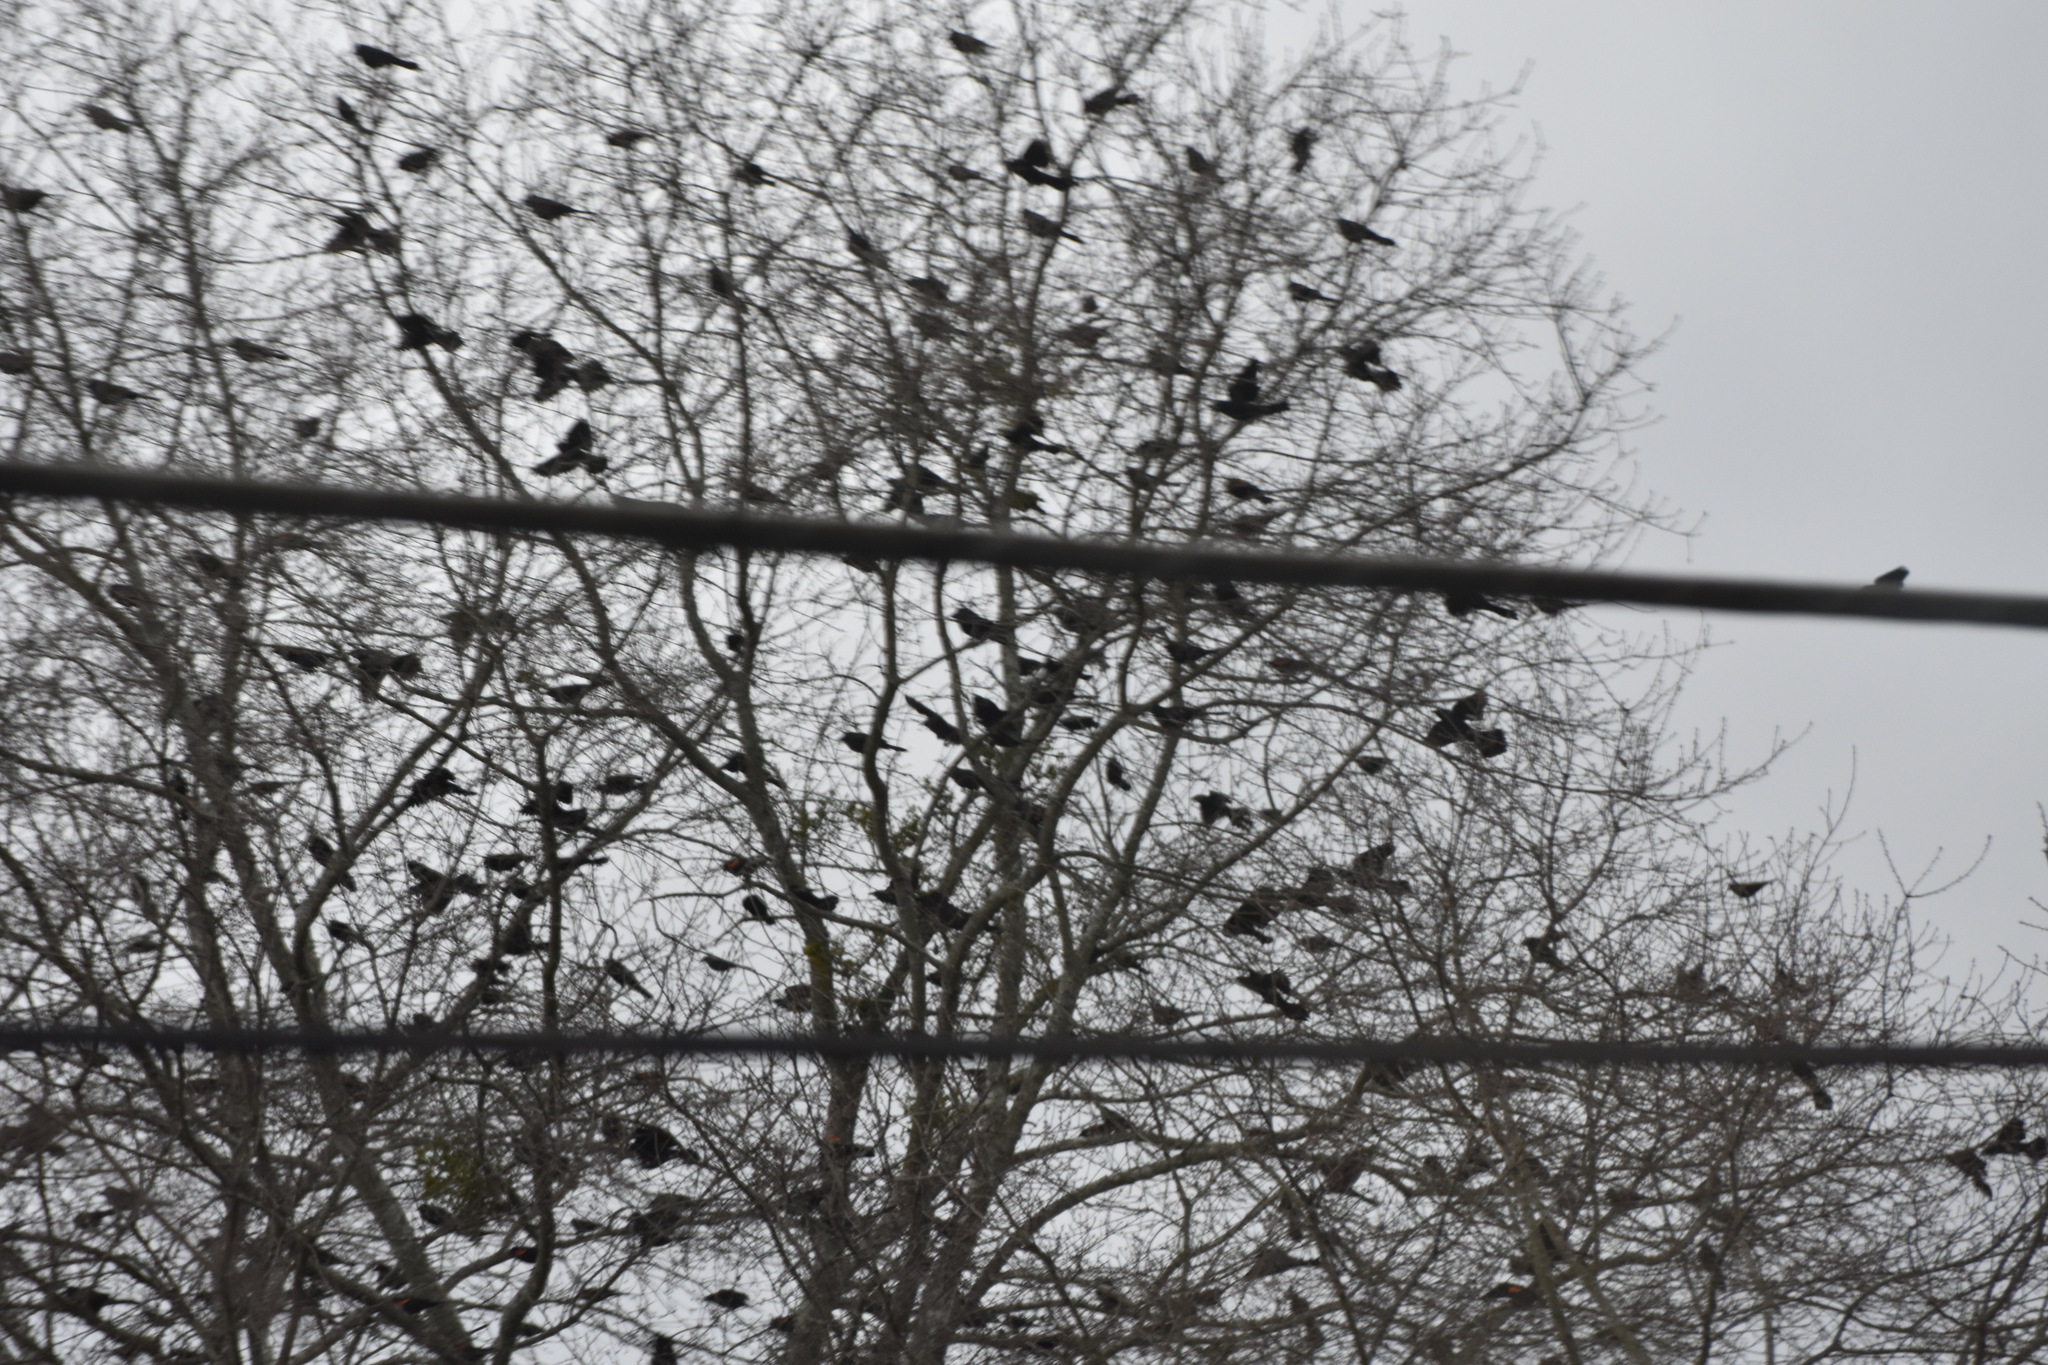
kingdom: Animalia
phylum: Chordata
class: Aves
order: Passeriformes
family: Sturnidae
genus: Sturnus
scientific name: Sturnus vulgaris
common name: Common starling
